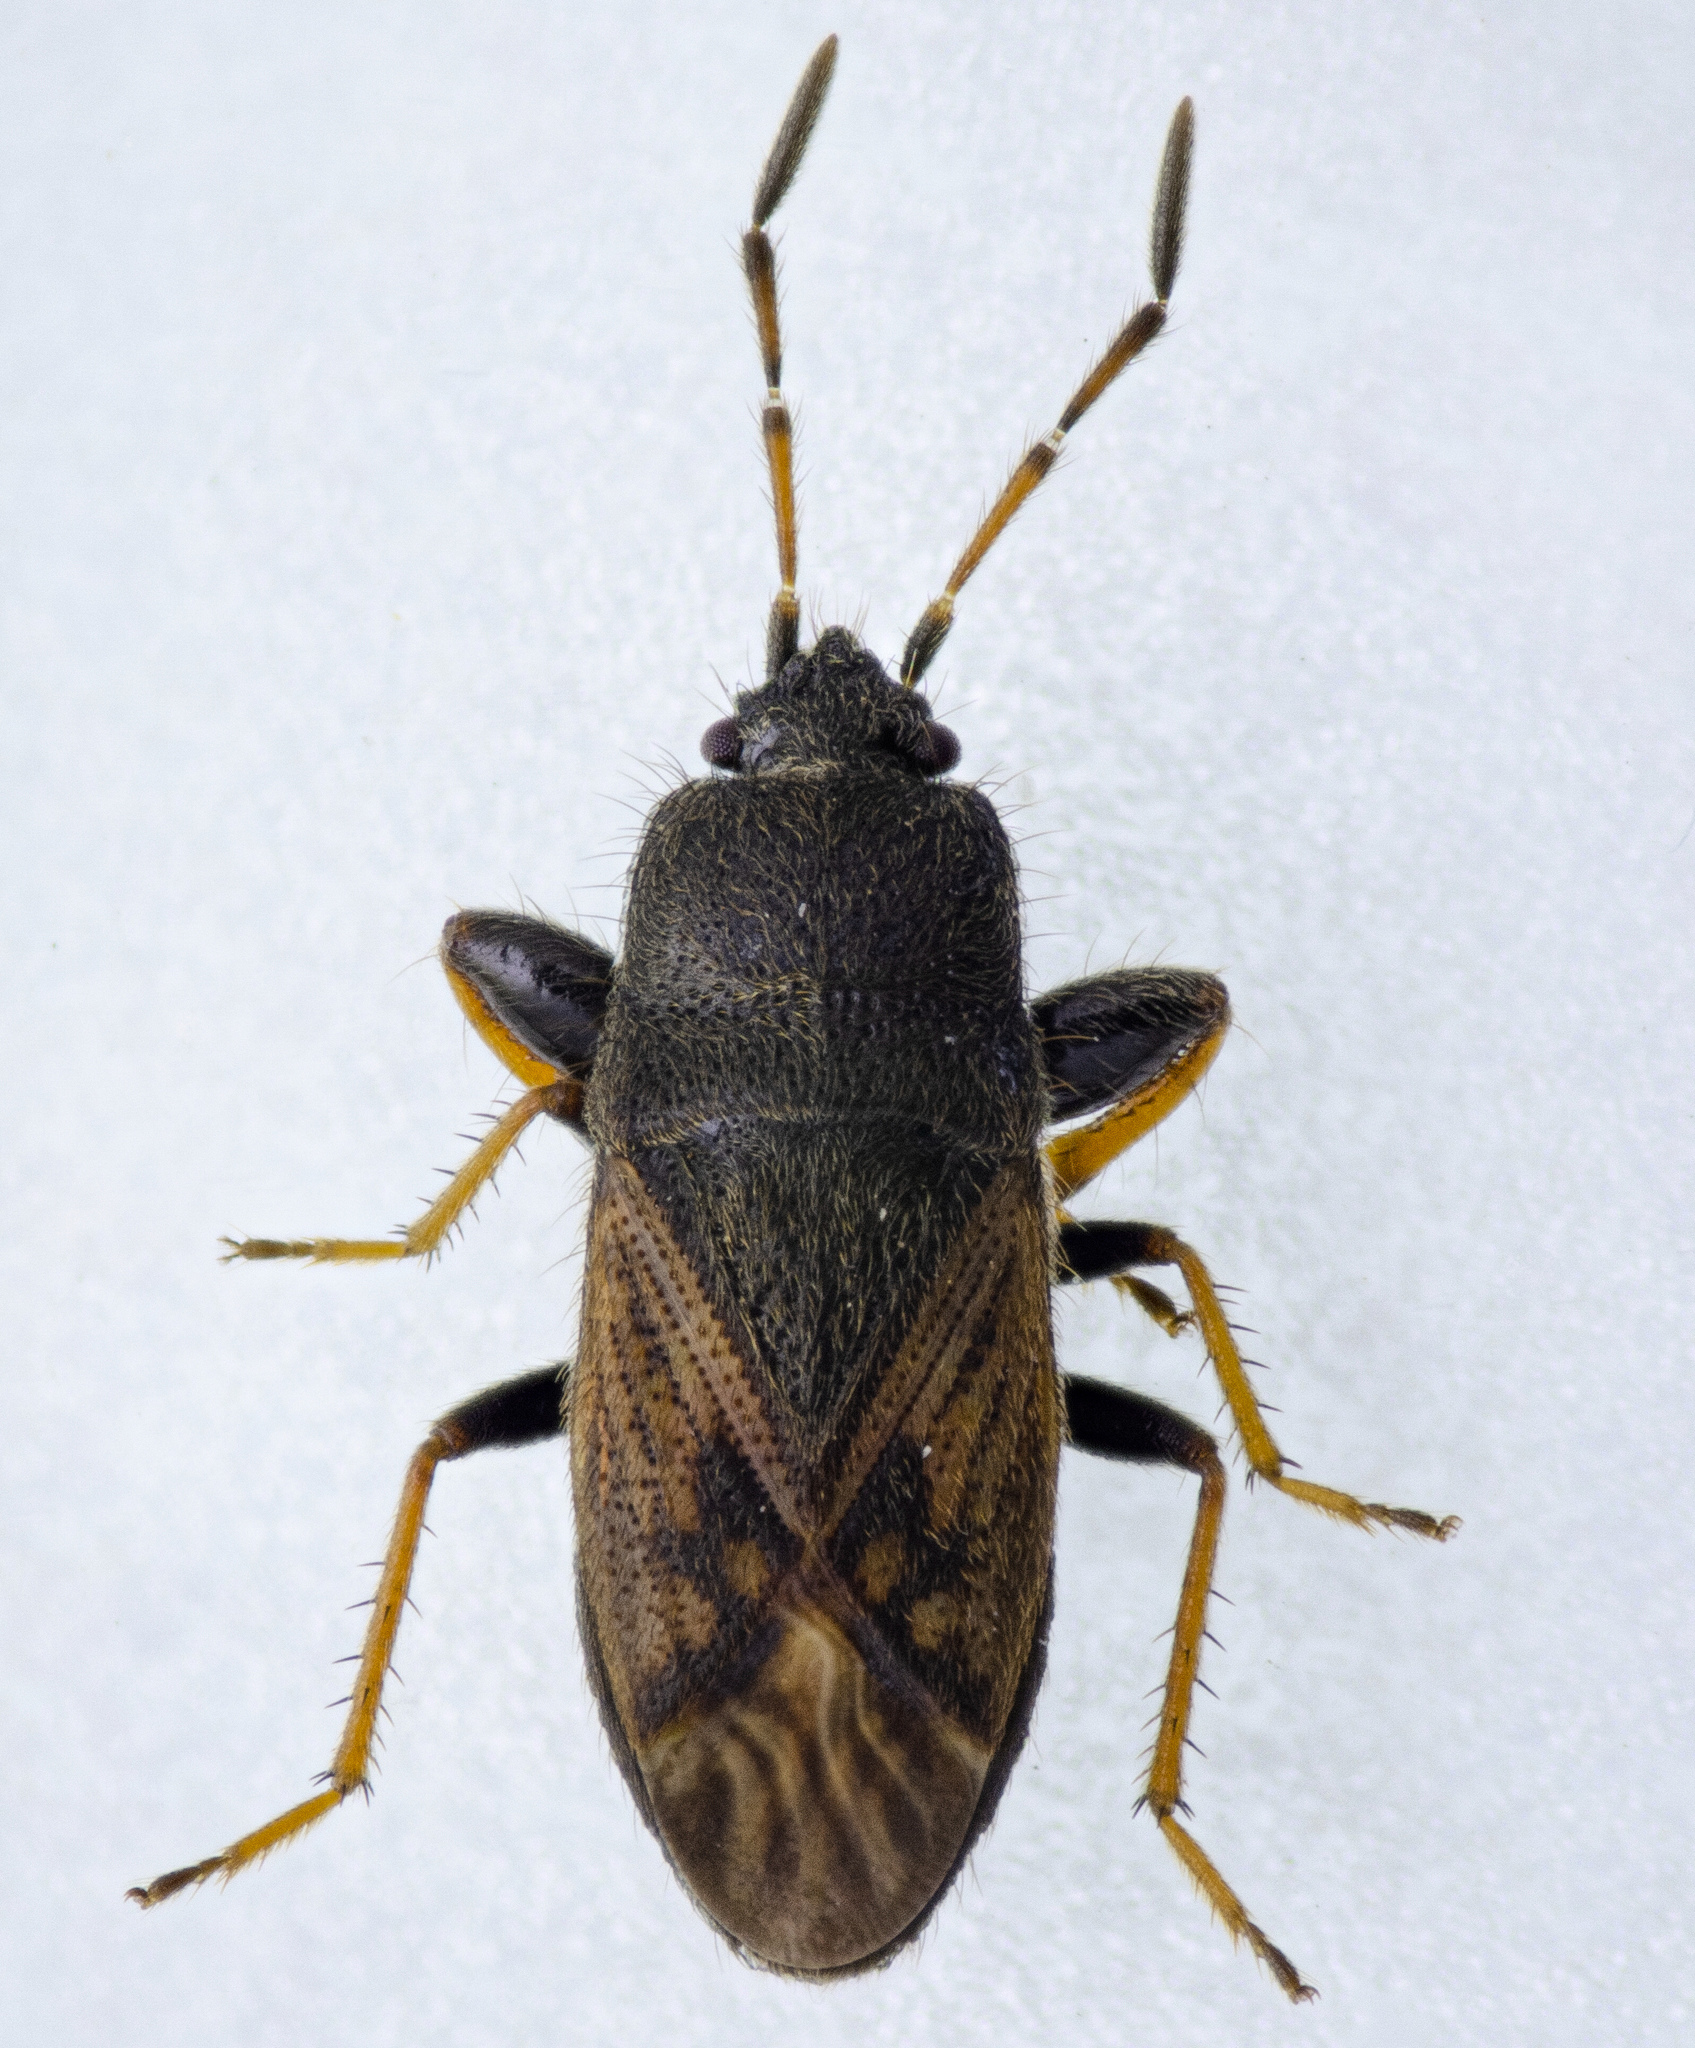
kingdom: Animalia
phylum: Arthropoda
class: Insecta
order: Hemiptera
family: Rhyparochromidae
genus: Megalonotus
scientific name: Megalonotus sabulicola
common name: Seed bug
